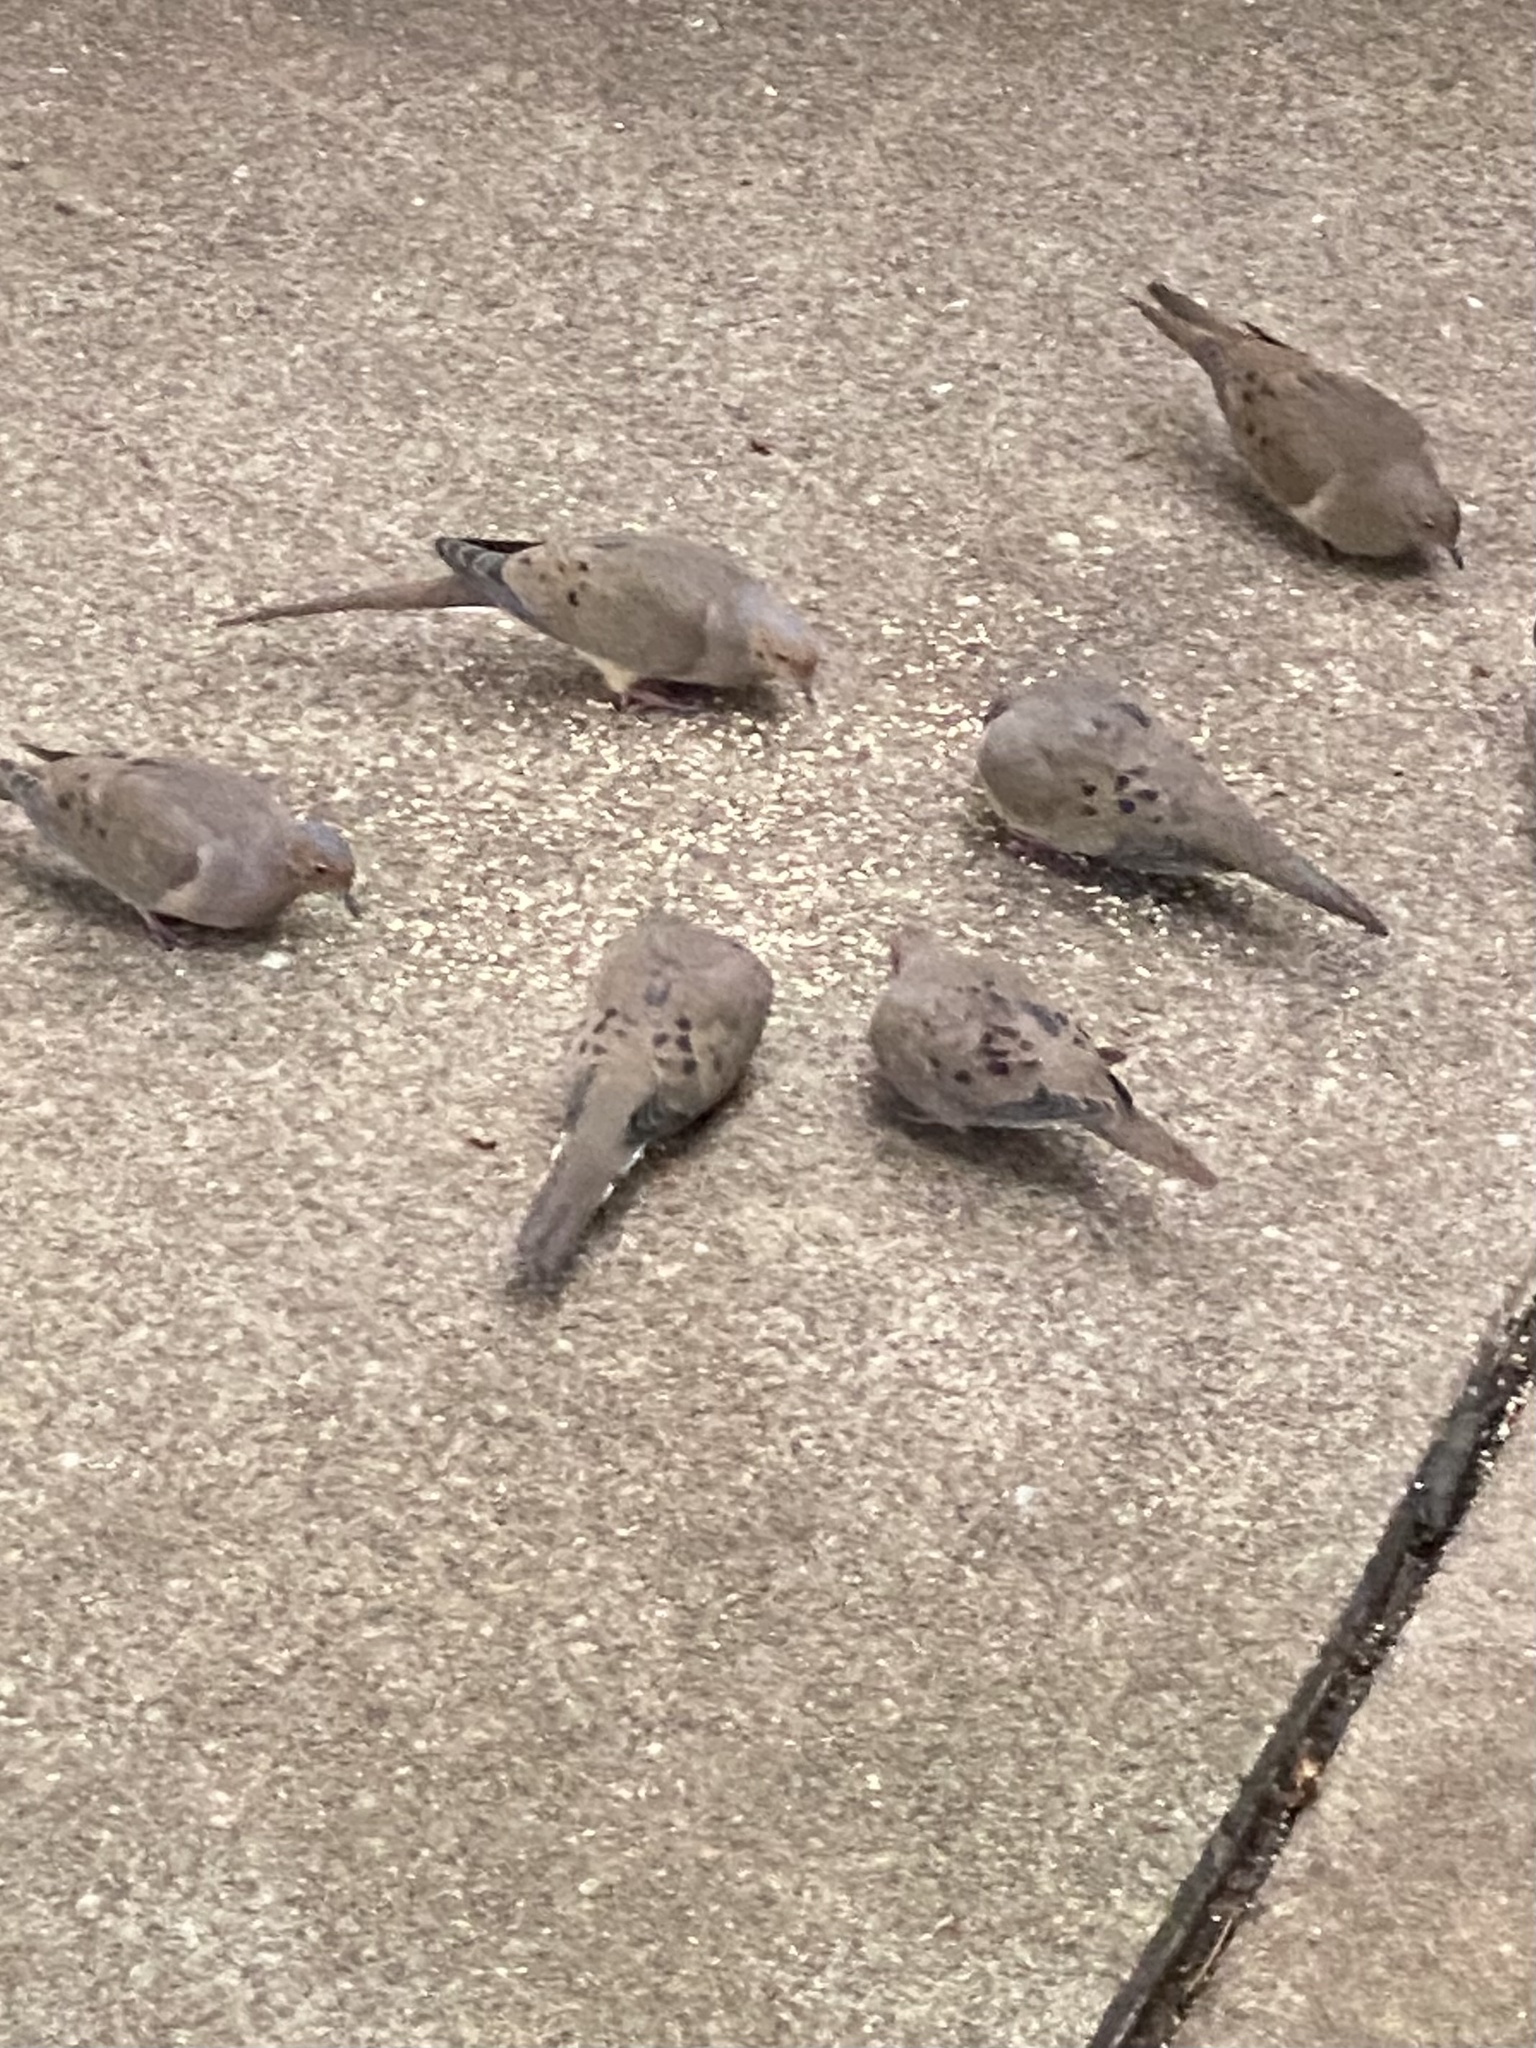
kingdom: Animalia
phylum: Chordata
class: Aves
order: Columbiformes
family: Columbidae
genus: Zenaida
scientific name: Zenaida macroura
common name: Mourning dove
